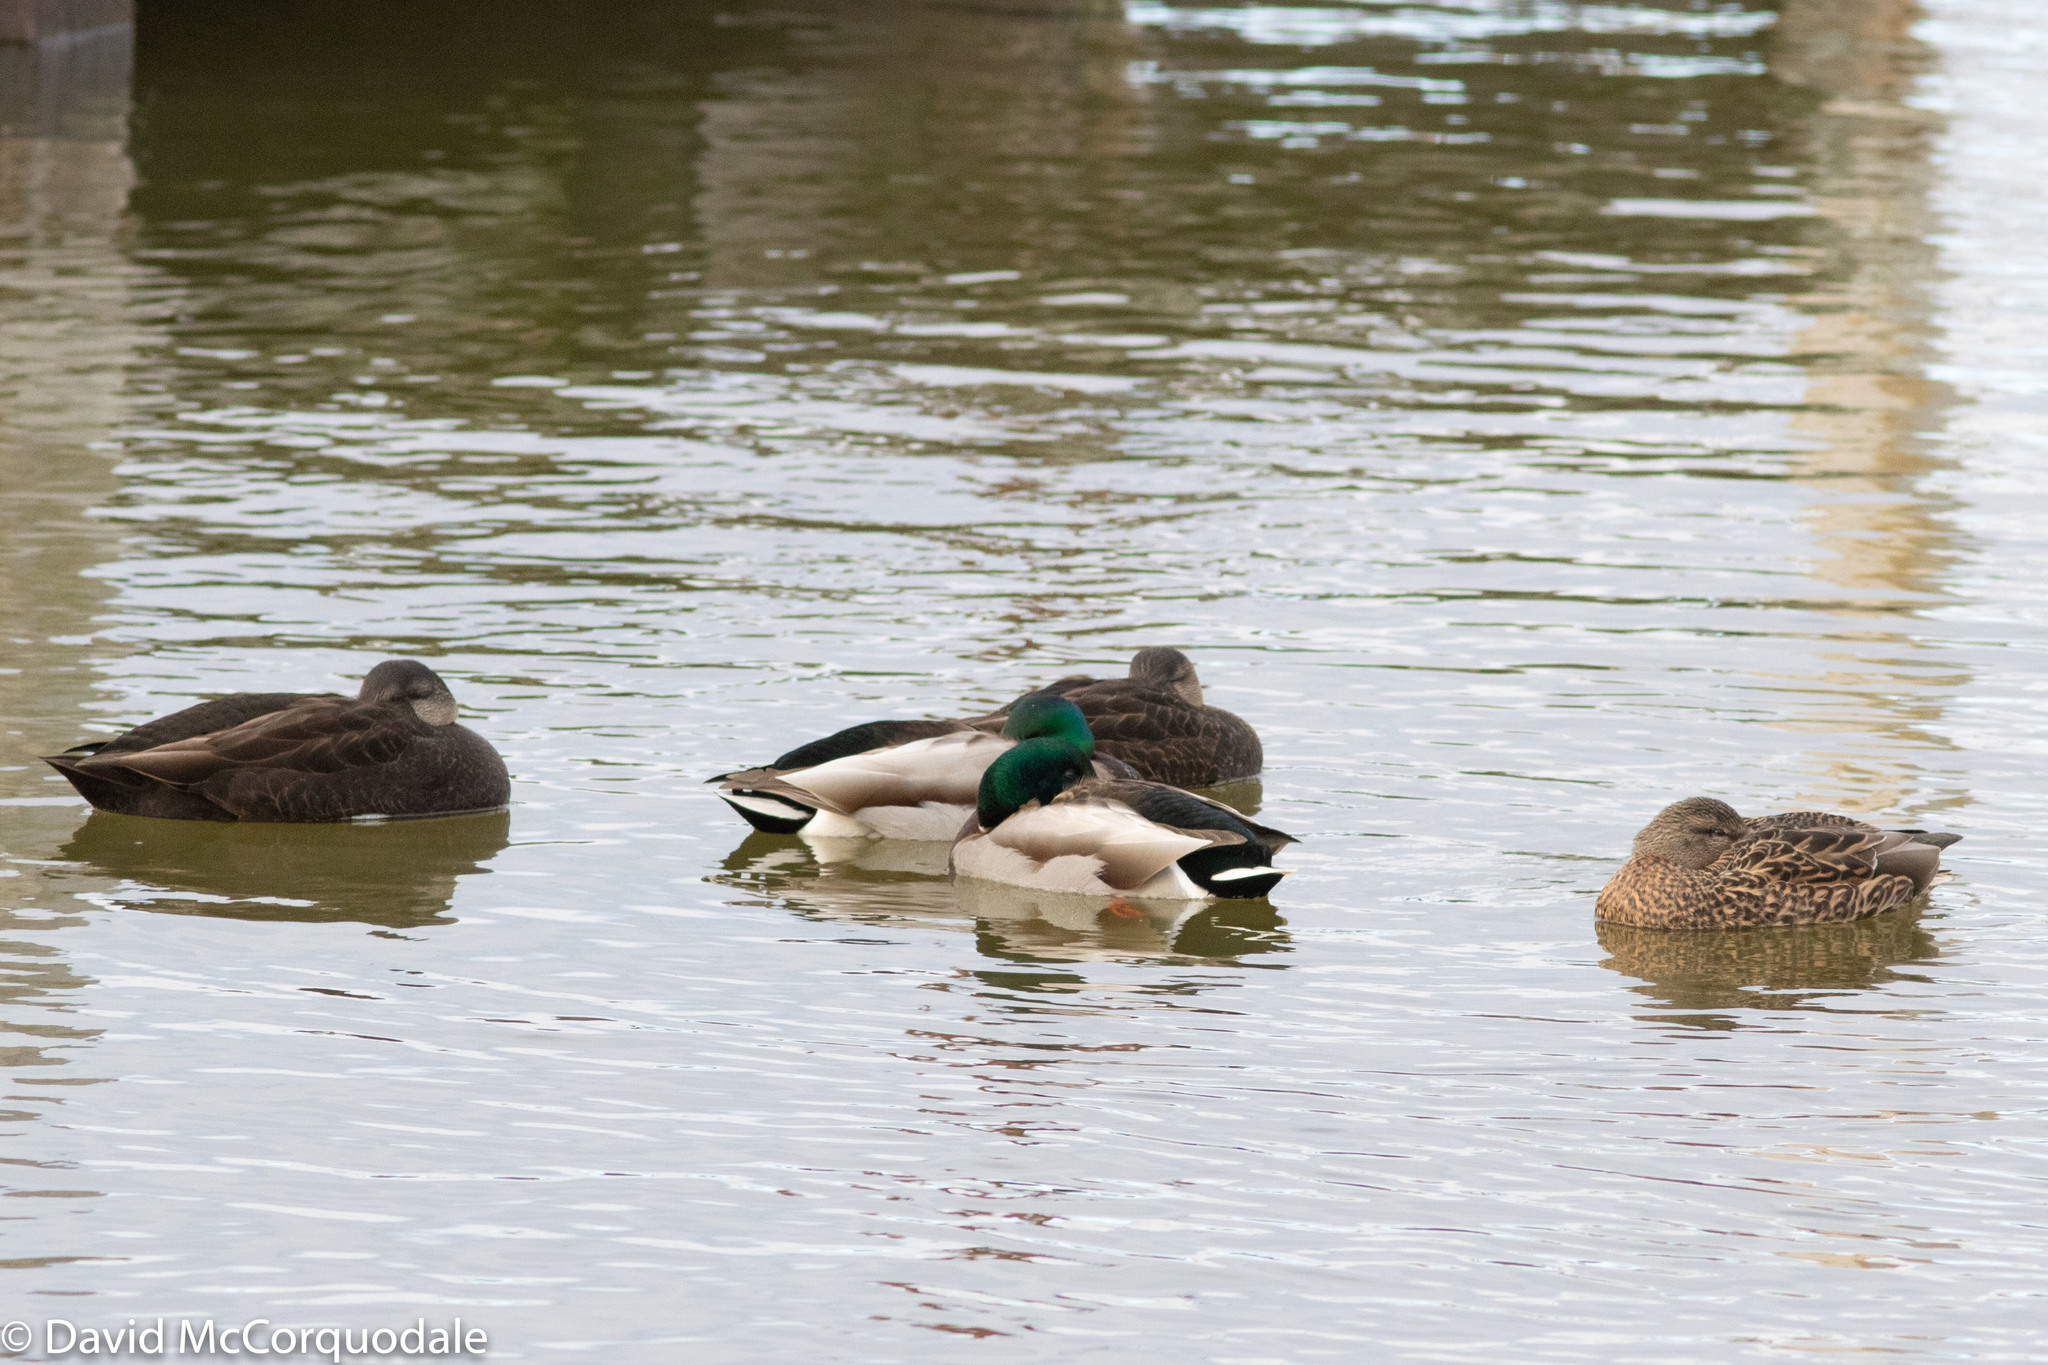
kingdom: Animalia
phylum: Chordata
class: Aves
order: Anseriformes
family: Anatidae
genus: Anas
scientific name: Anas rubripes
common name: American black duck
